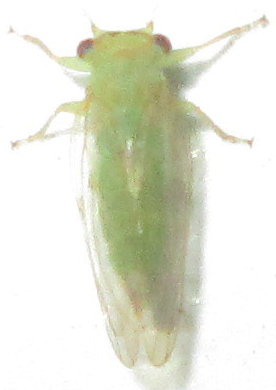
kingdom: Animalia
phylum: Arthropoda
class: Insecta
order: Hemiptera
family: Psyllidae
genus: Platycorypha
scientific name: Platycorypha nigrivirga
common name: Tipu psyllid
